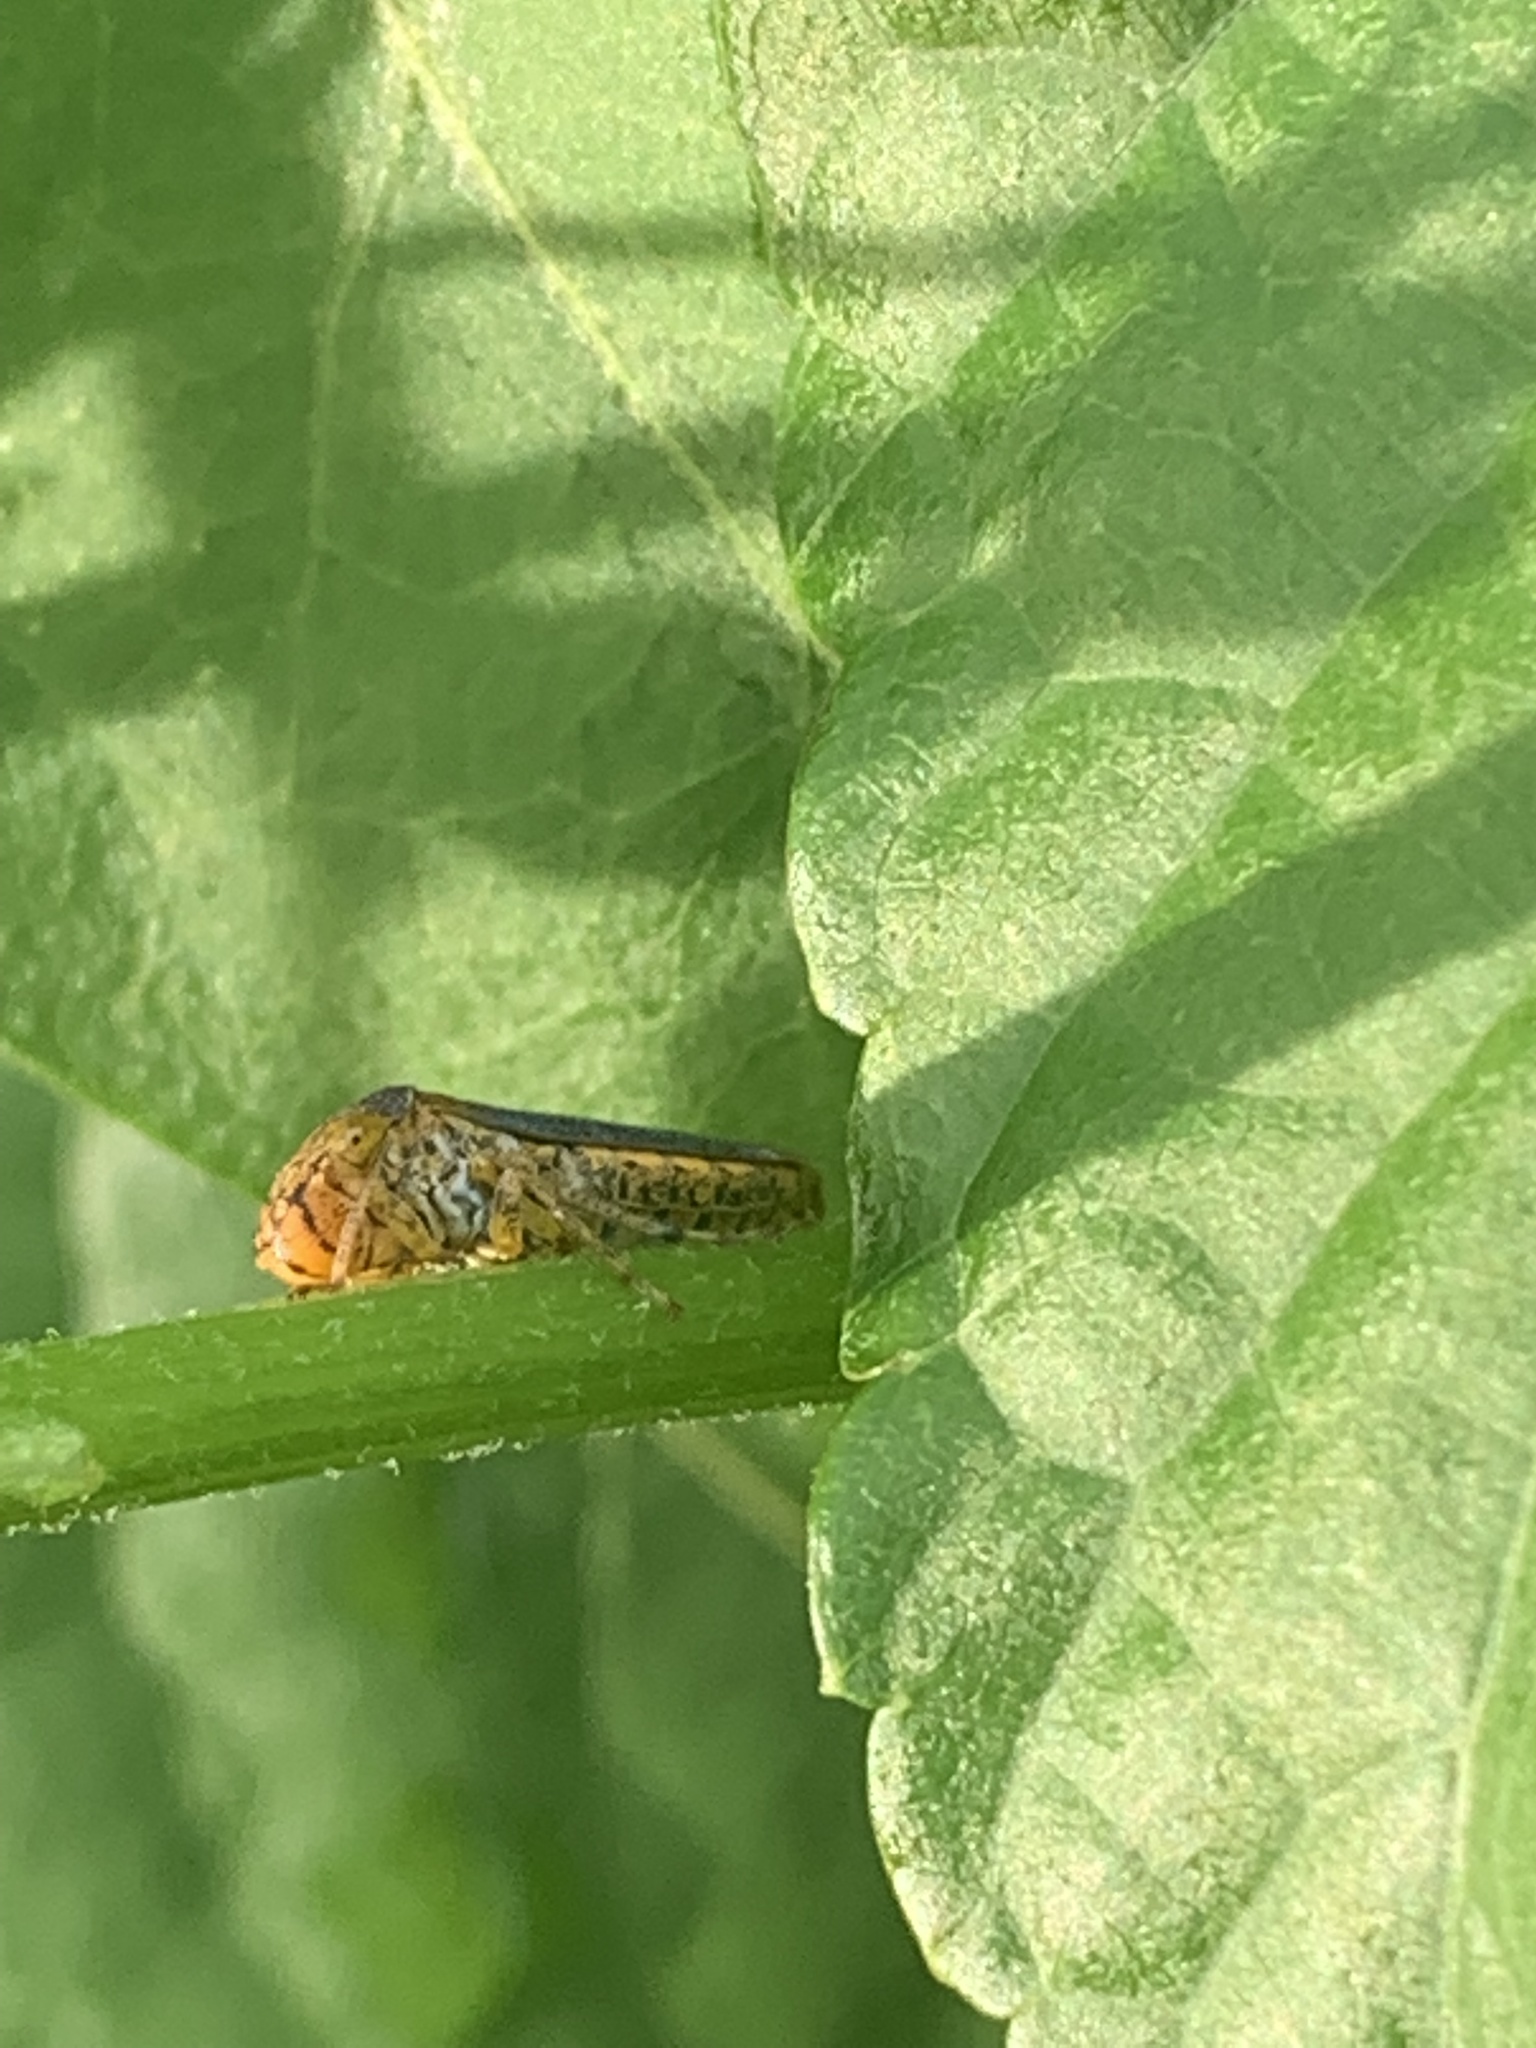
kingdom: Animalia
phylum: Arthropoda
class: Insecta
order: Hemiptera
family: Cicadellidae
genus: Oncometopia
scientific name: Oncometopia orbona
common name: Broad-headed sharpshooter
